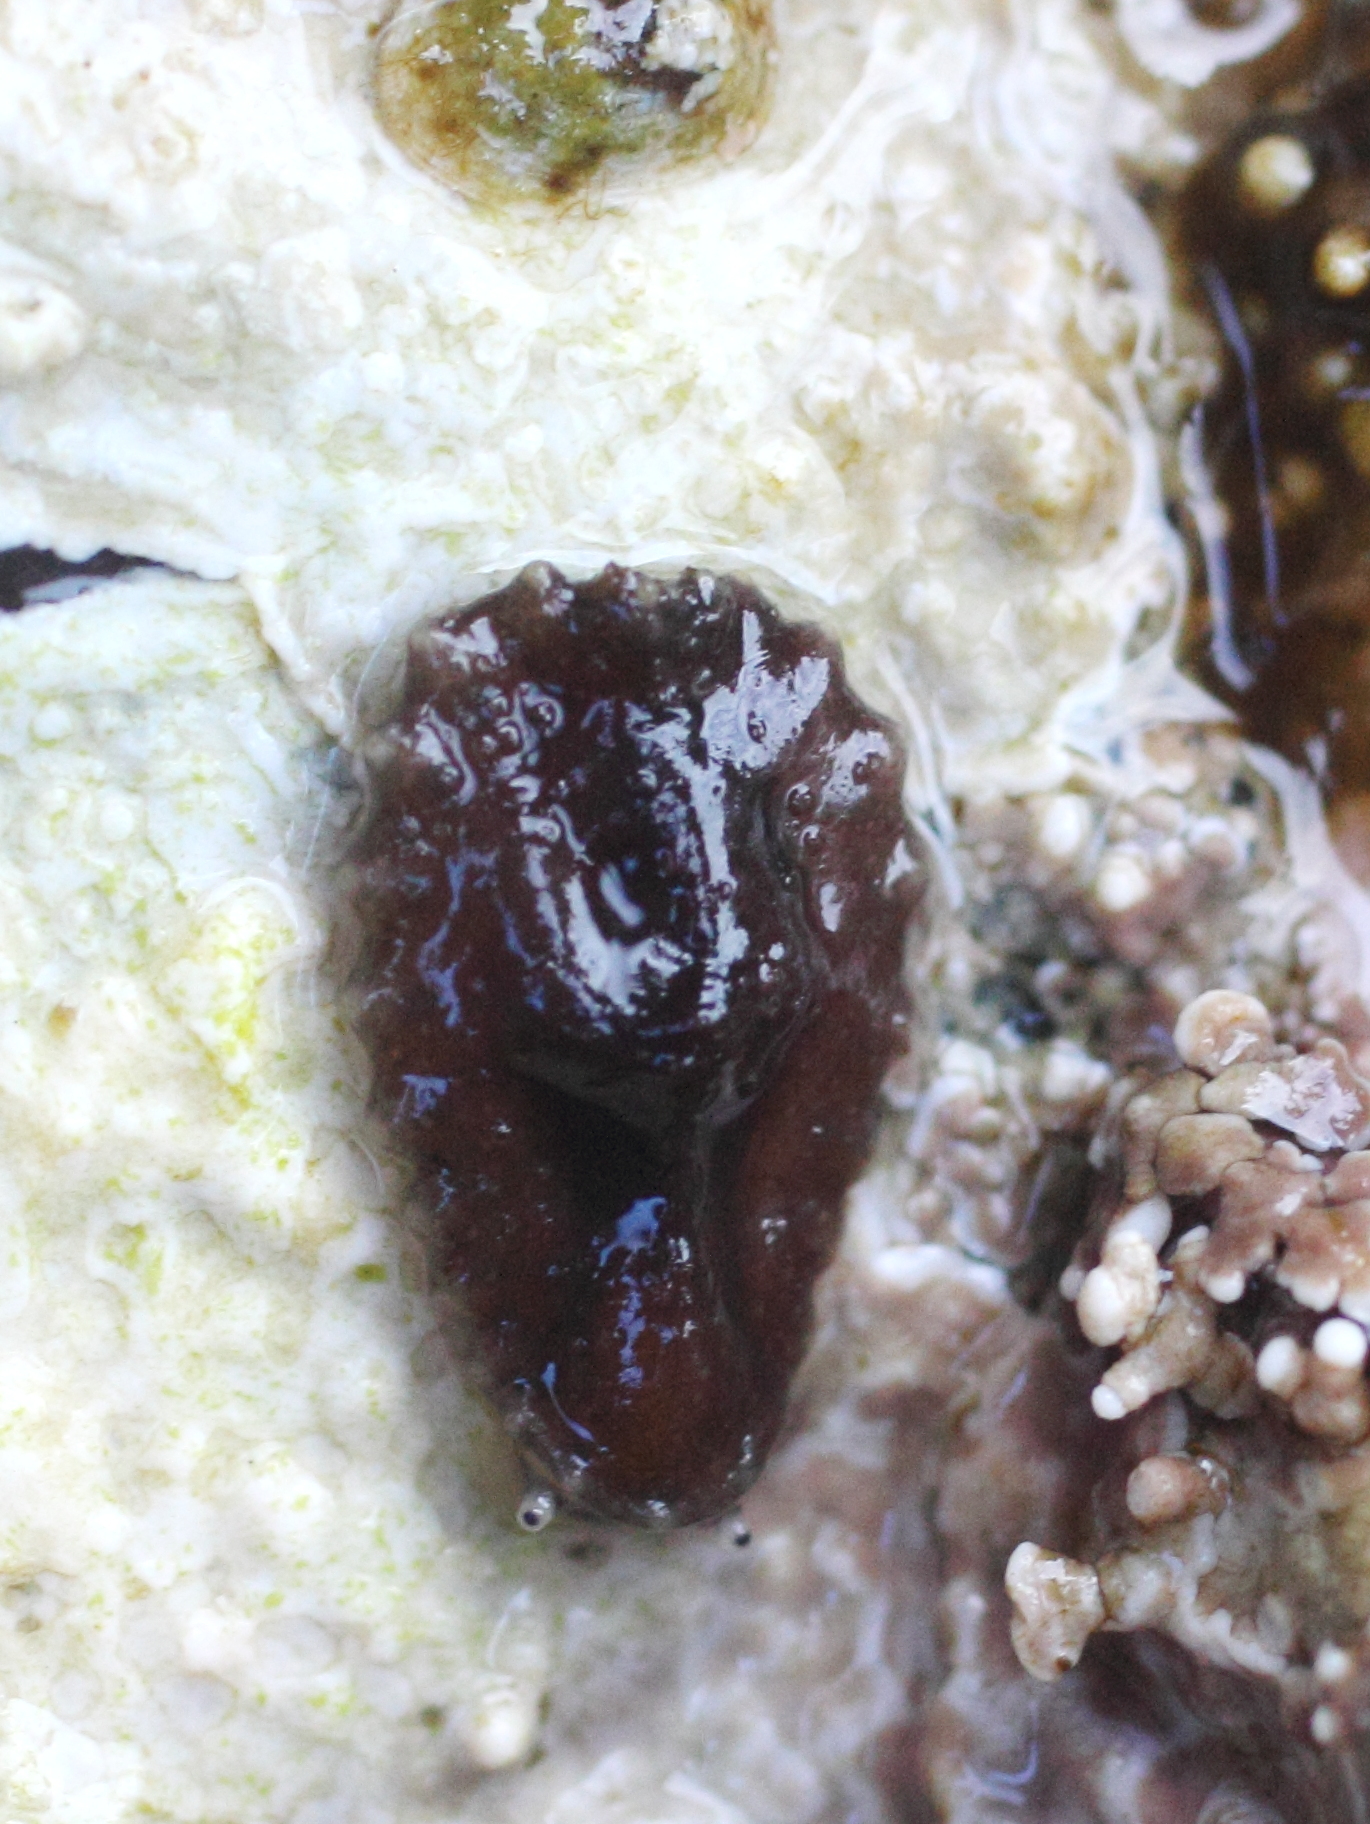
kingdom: Animalia
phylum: Mollusca
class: Gastropoda
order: Systellommatophora
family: Onchidiidae
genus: Onchidella
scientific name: Onchidella carpenteri
